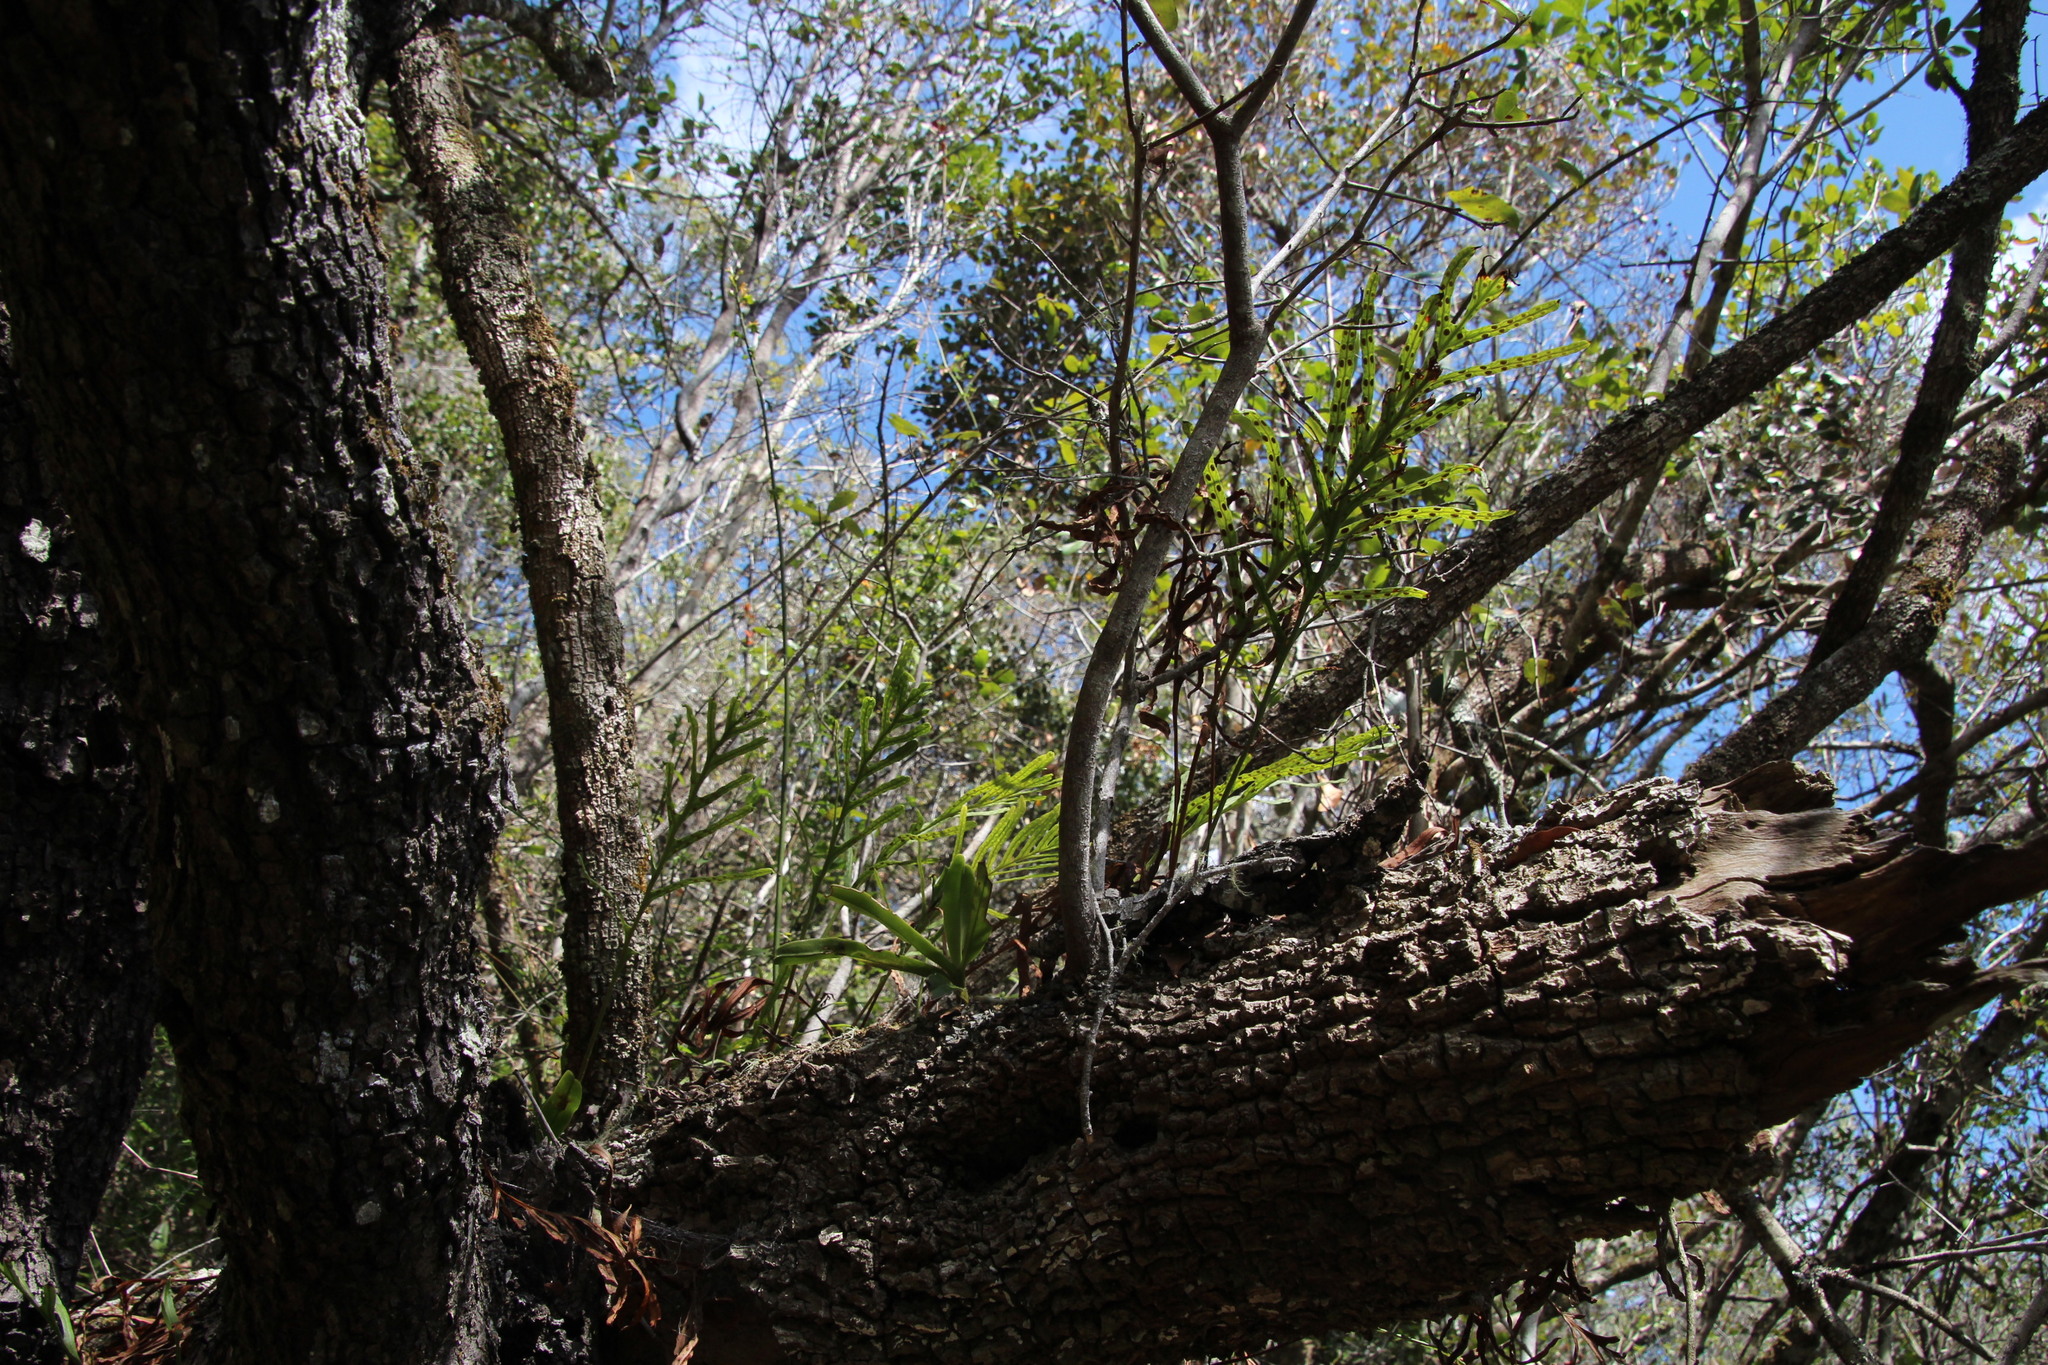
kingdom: Plantae
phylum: Tracheophyta
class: Polypodiopsida
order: Polypodiales
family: Polypodiaceae
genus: Polypodium
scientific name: Polypodium ensiforme
